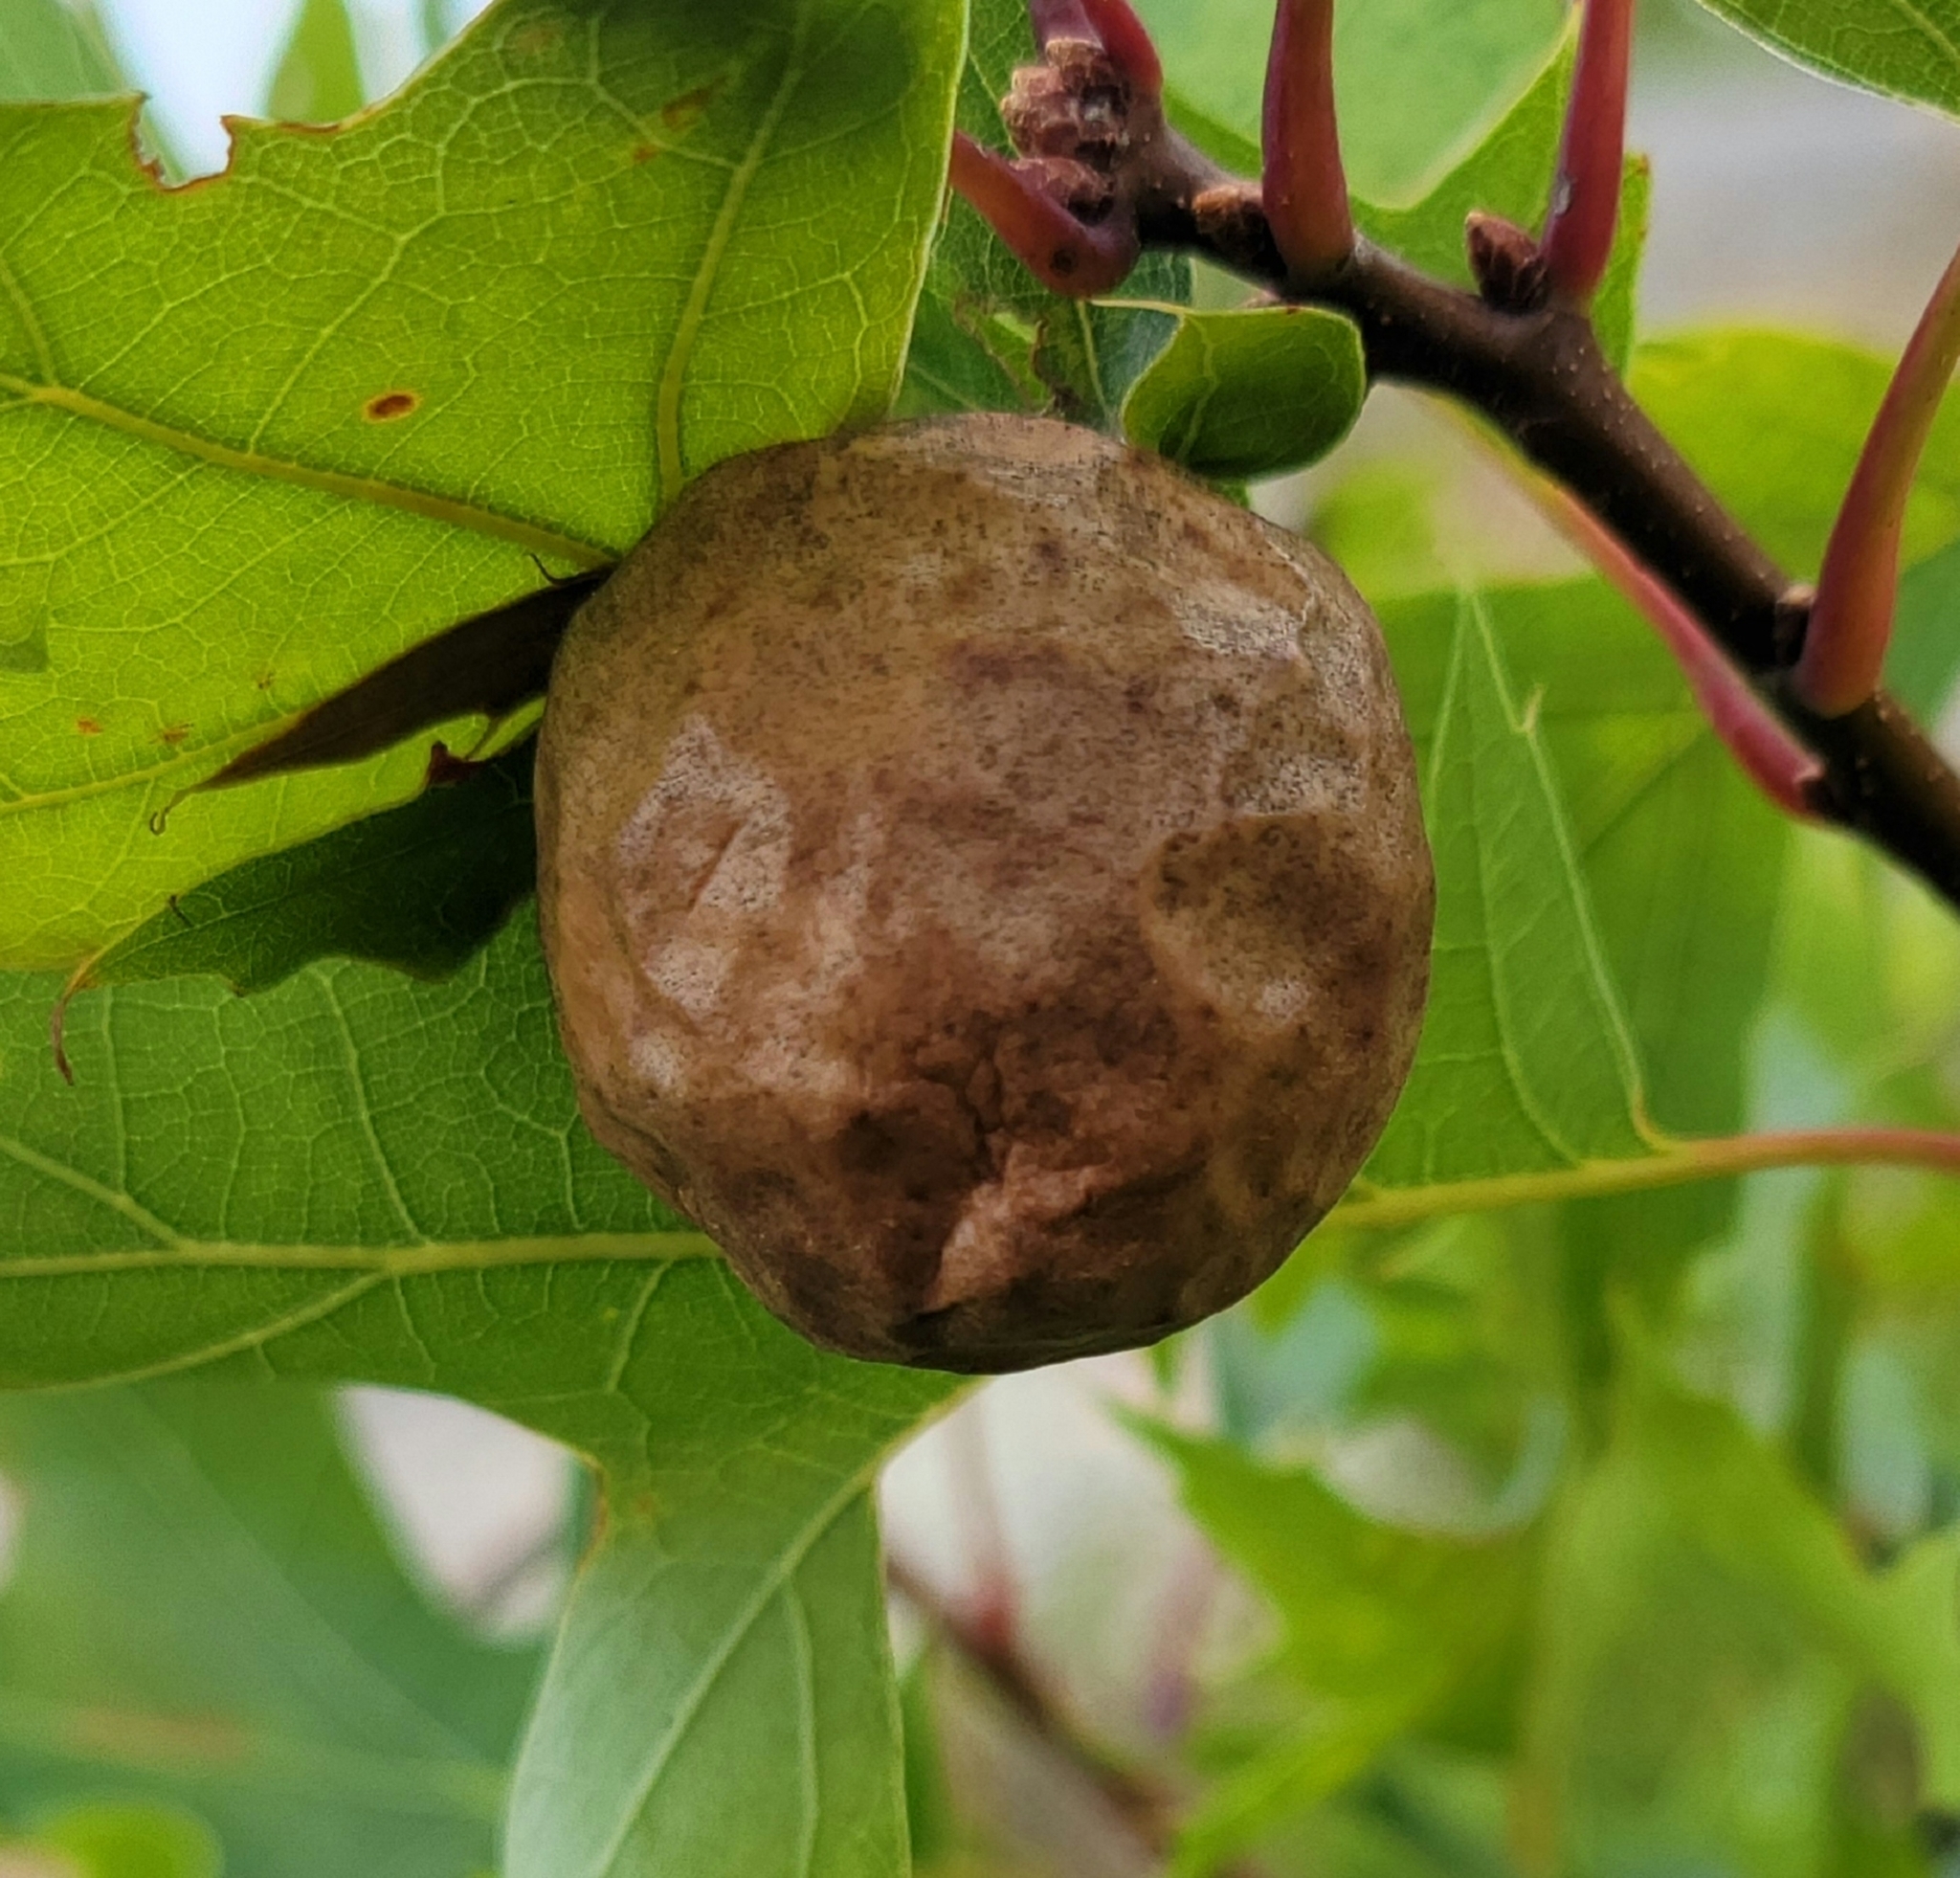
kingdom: Animalia
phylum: Arthropoda
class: Insecta
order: Hymenoptera
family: Cynipidae
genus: Amphibolips
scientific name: Amphibolips
